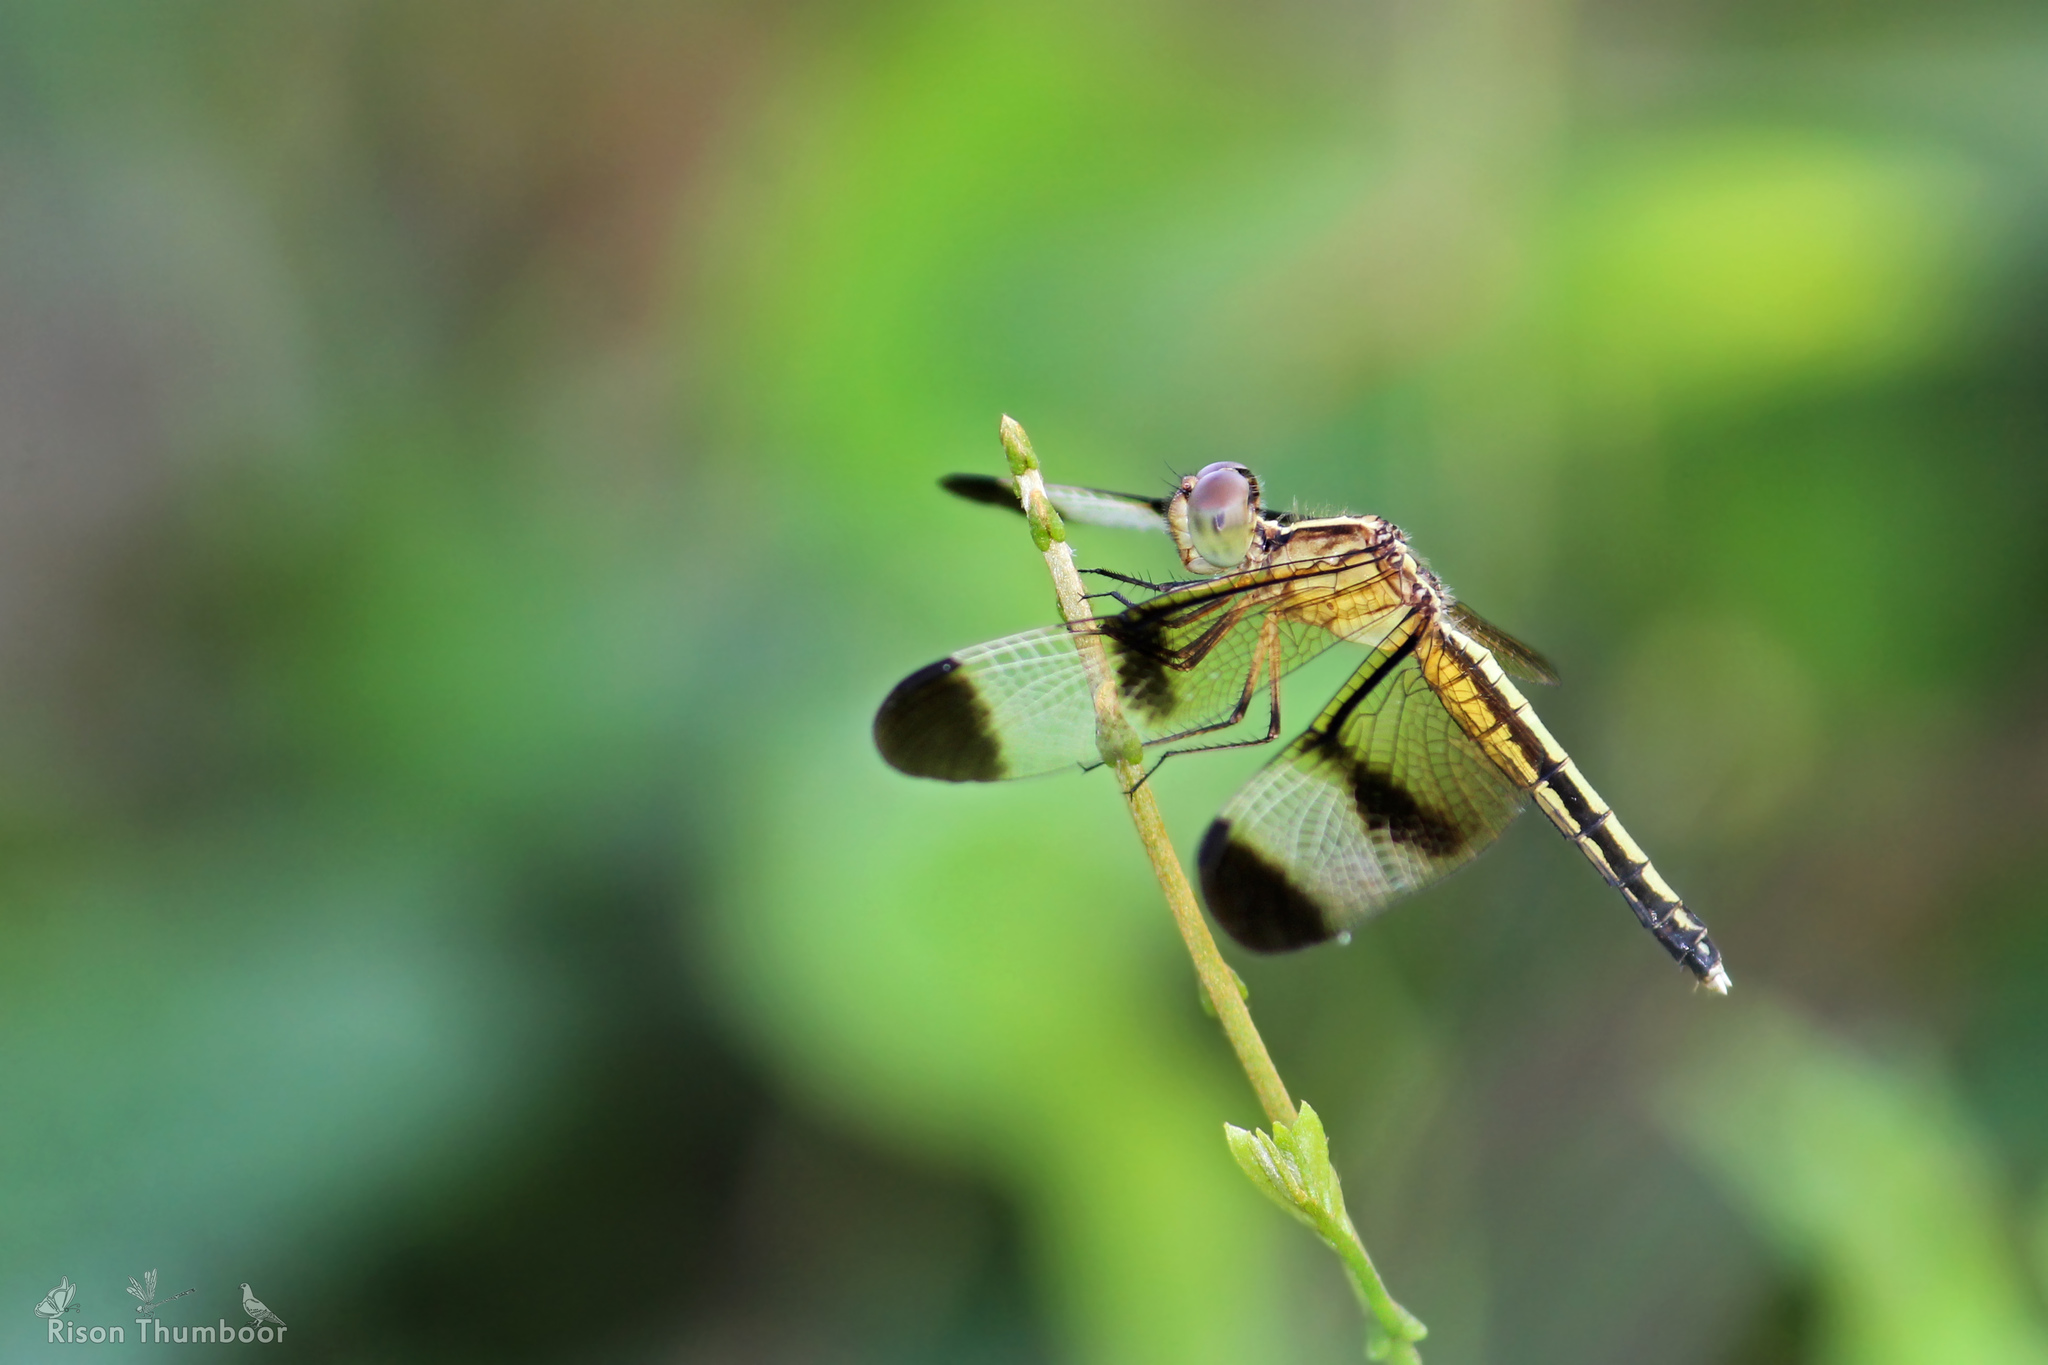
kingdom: Animalia
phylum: Arthropoda
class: Insecta
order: Odonata
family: Libellulidae
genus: Neurothemis
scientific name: Neurothemis tullia
